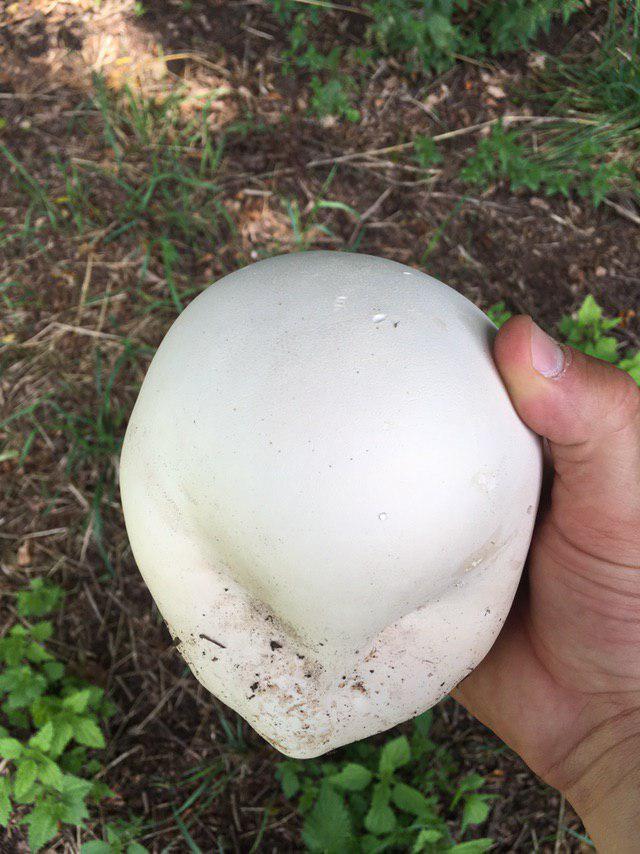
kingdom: Fungi
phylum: Basidiomycota
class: Agaricomycetes
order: Agaricales
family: Lycoperdaceae
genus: Calvatia
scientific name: Calvatia gigantea
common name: Giant puffball
